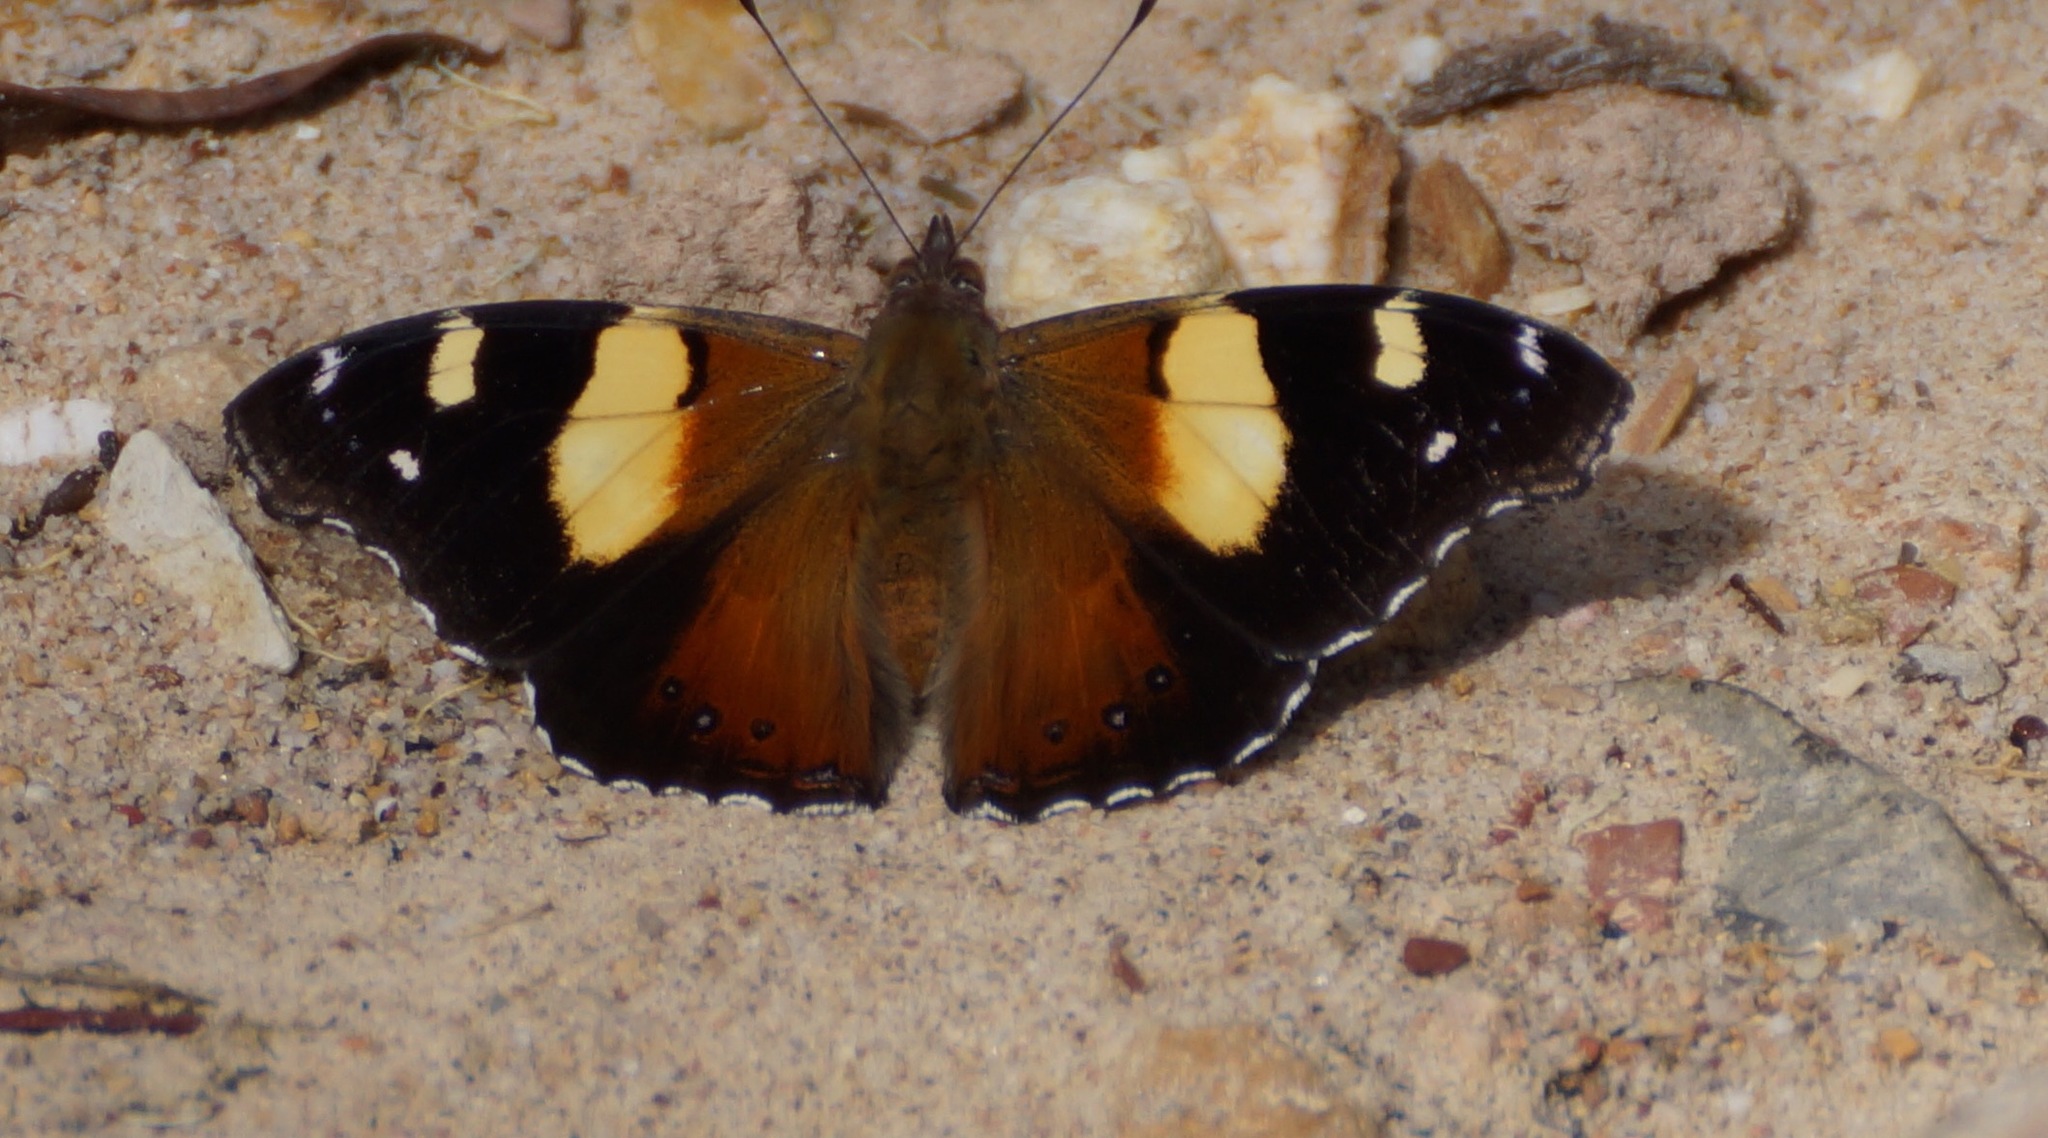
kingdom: Animalia
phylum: Arthropoda
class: Insecta
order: Lepidoptera
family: Nymphalidae
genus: Vanessa
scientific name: Vanessa itea
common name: Yellow admiral
